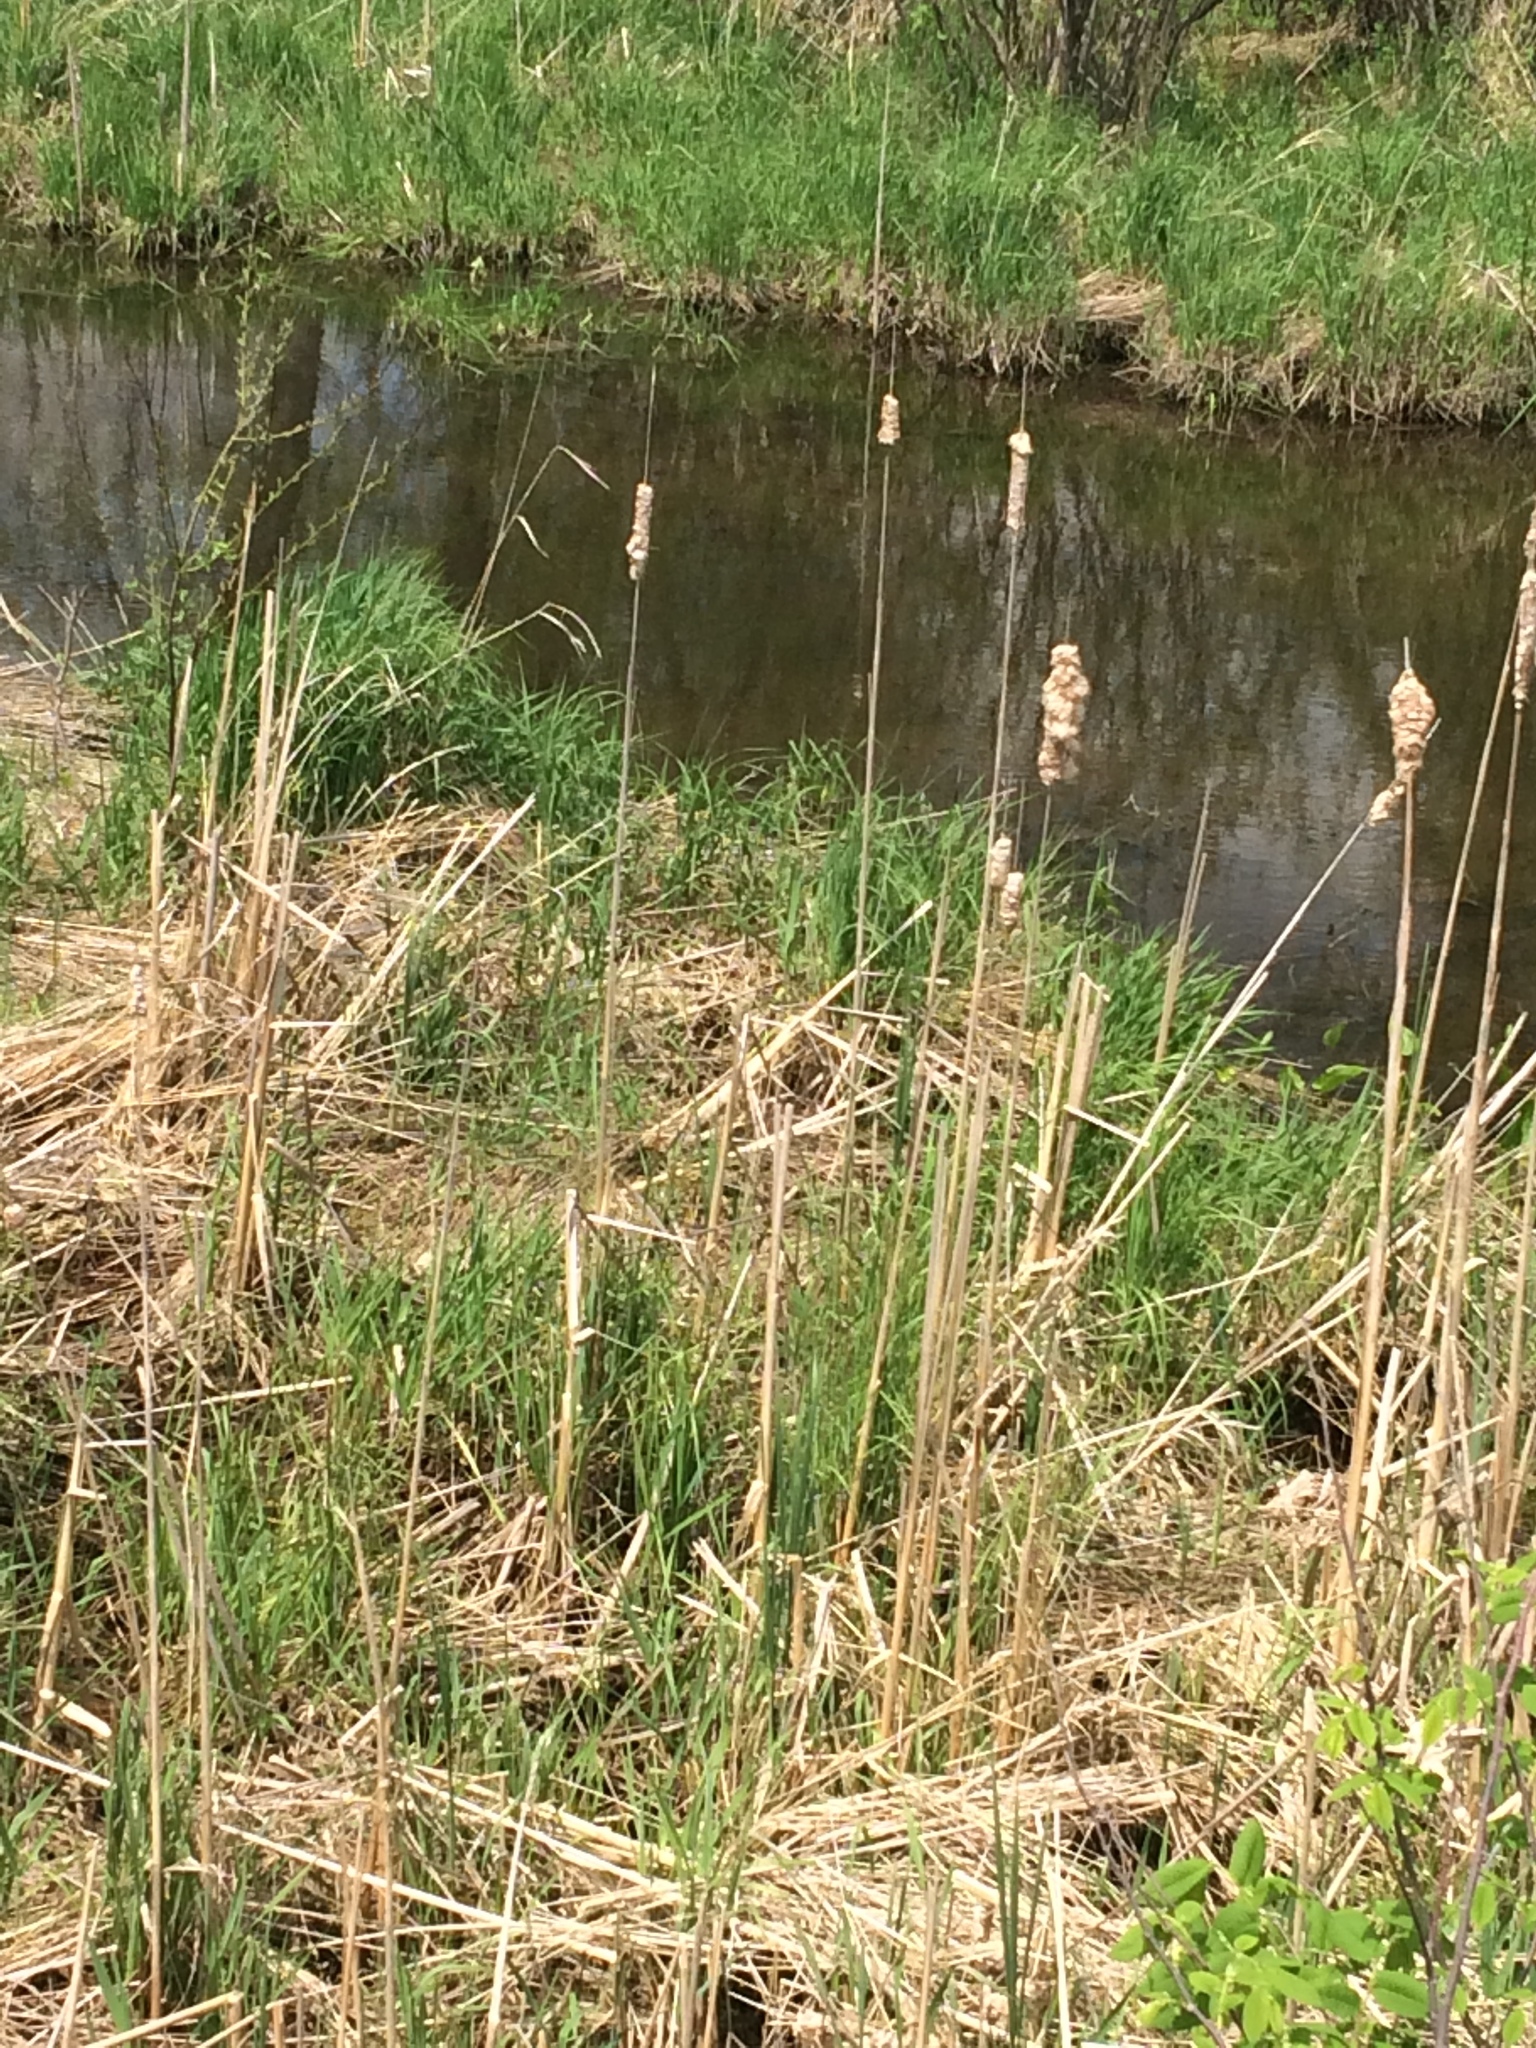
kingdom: Plantae
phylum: Tracheophyta
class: Liliopsida
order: Poales
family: Typhaceae
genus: Typha
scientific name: Typha
